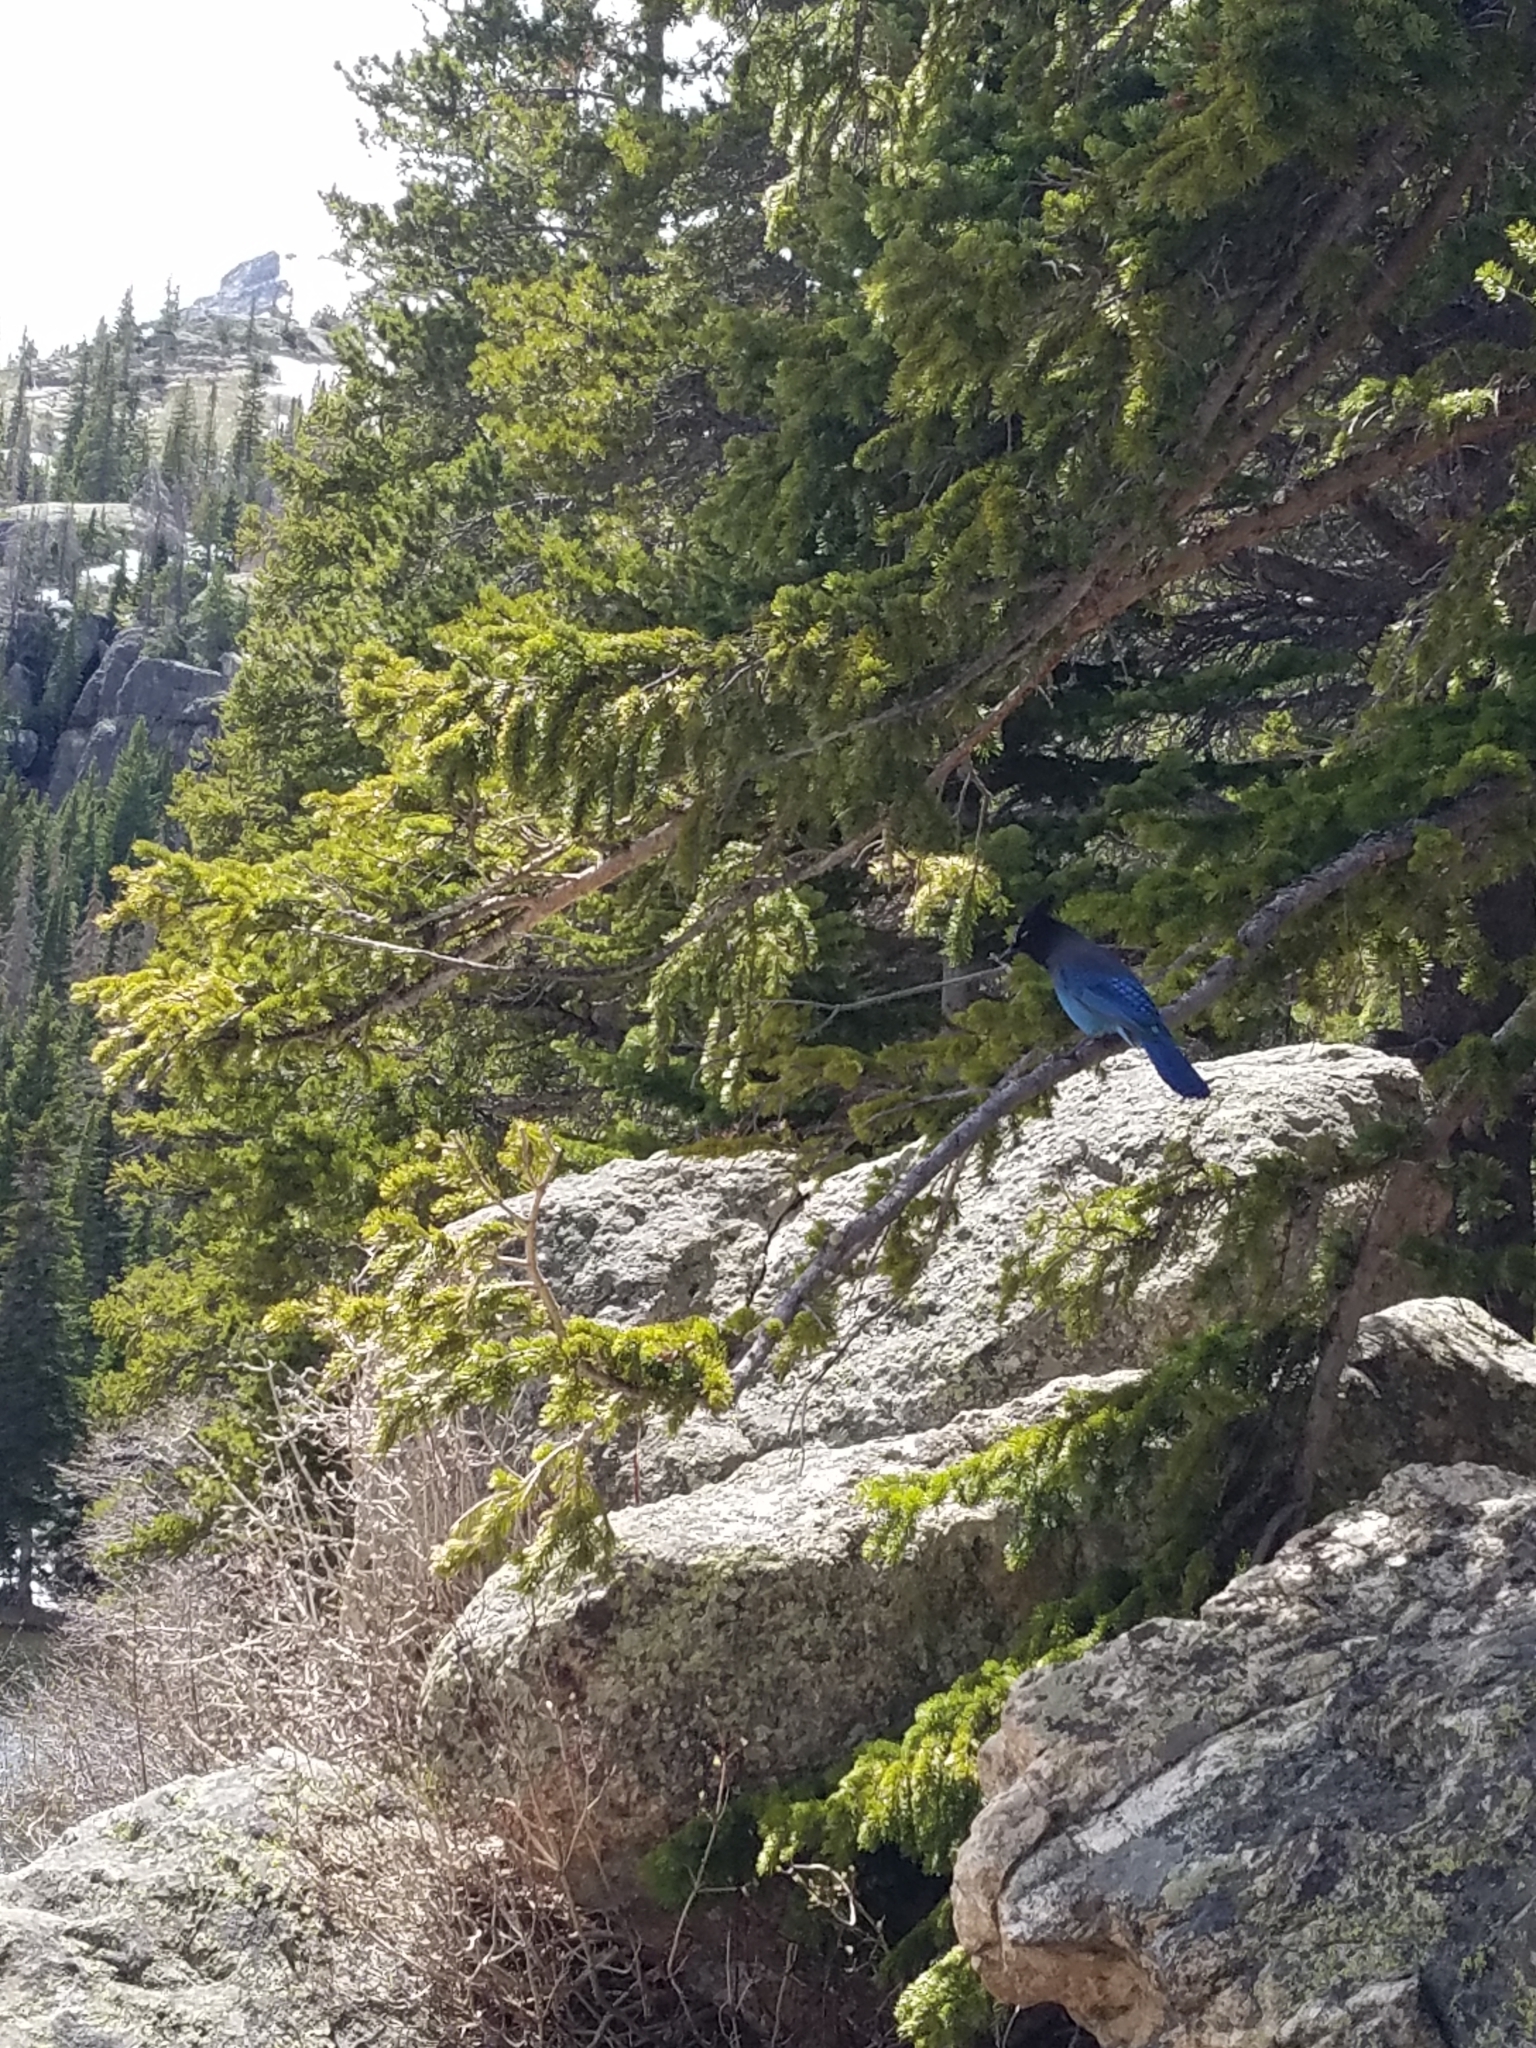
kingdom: Animalia
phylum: Chordata
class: Aves
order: Passeriformes
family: Corvidae
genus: Cyanocitta
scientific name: Cyanocitta stelleri
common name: Steller's jay
